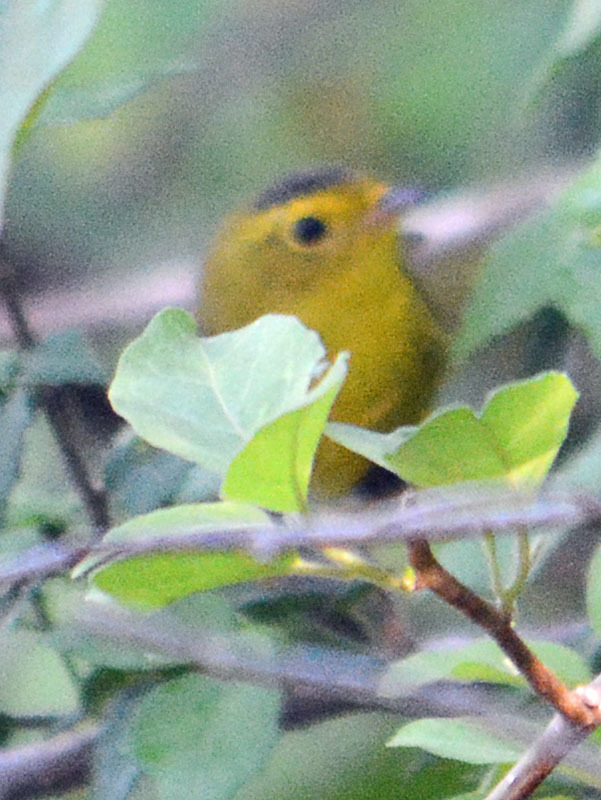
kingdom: Animalia
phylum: Chordata
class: Aves
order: Passeriformes
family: Parulidae
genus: Cardellina
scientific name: Cardellina pusilla
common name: Wilson's warbler
